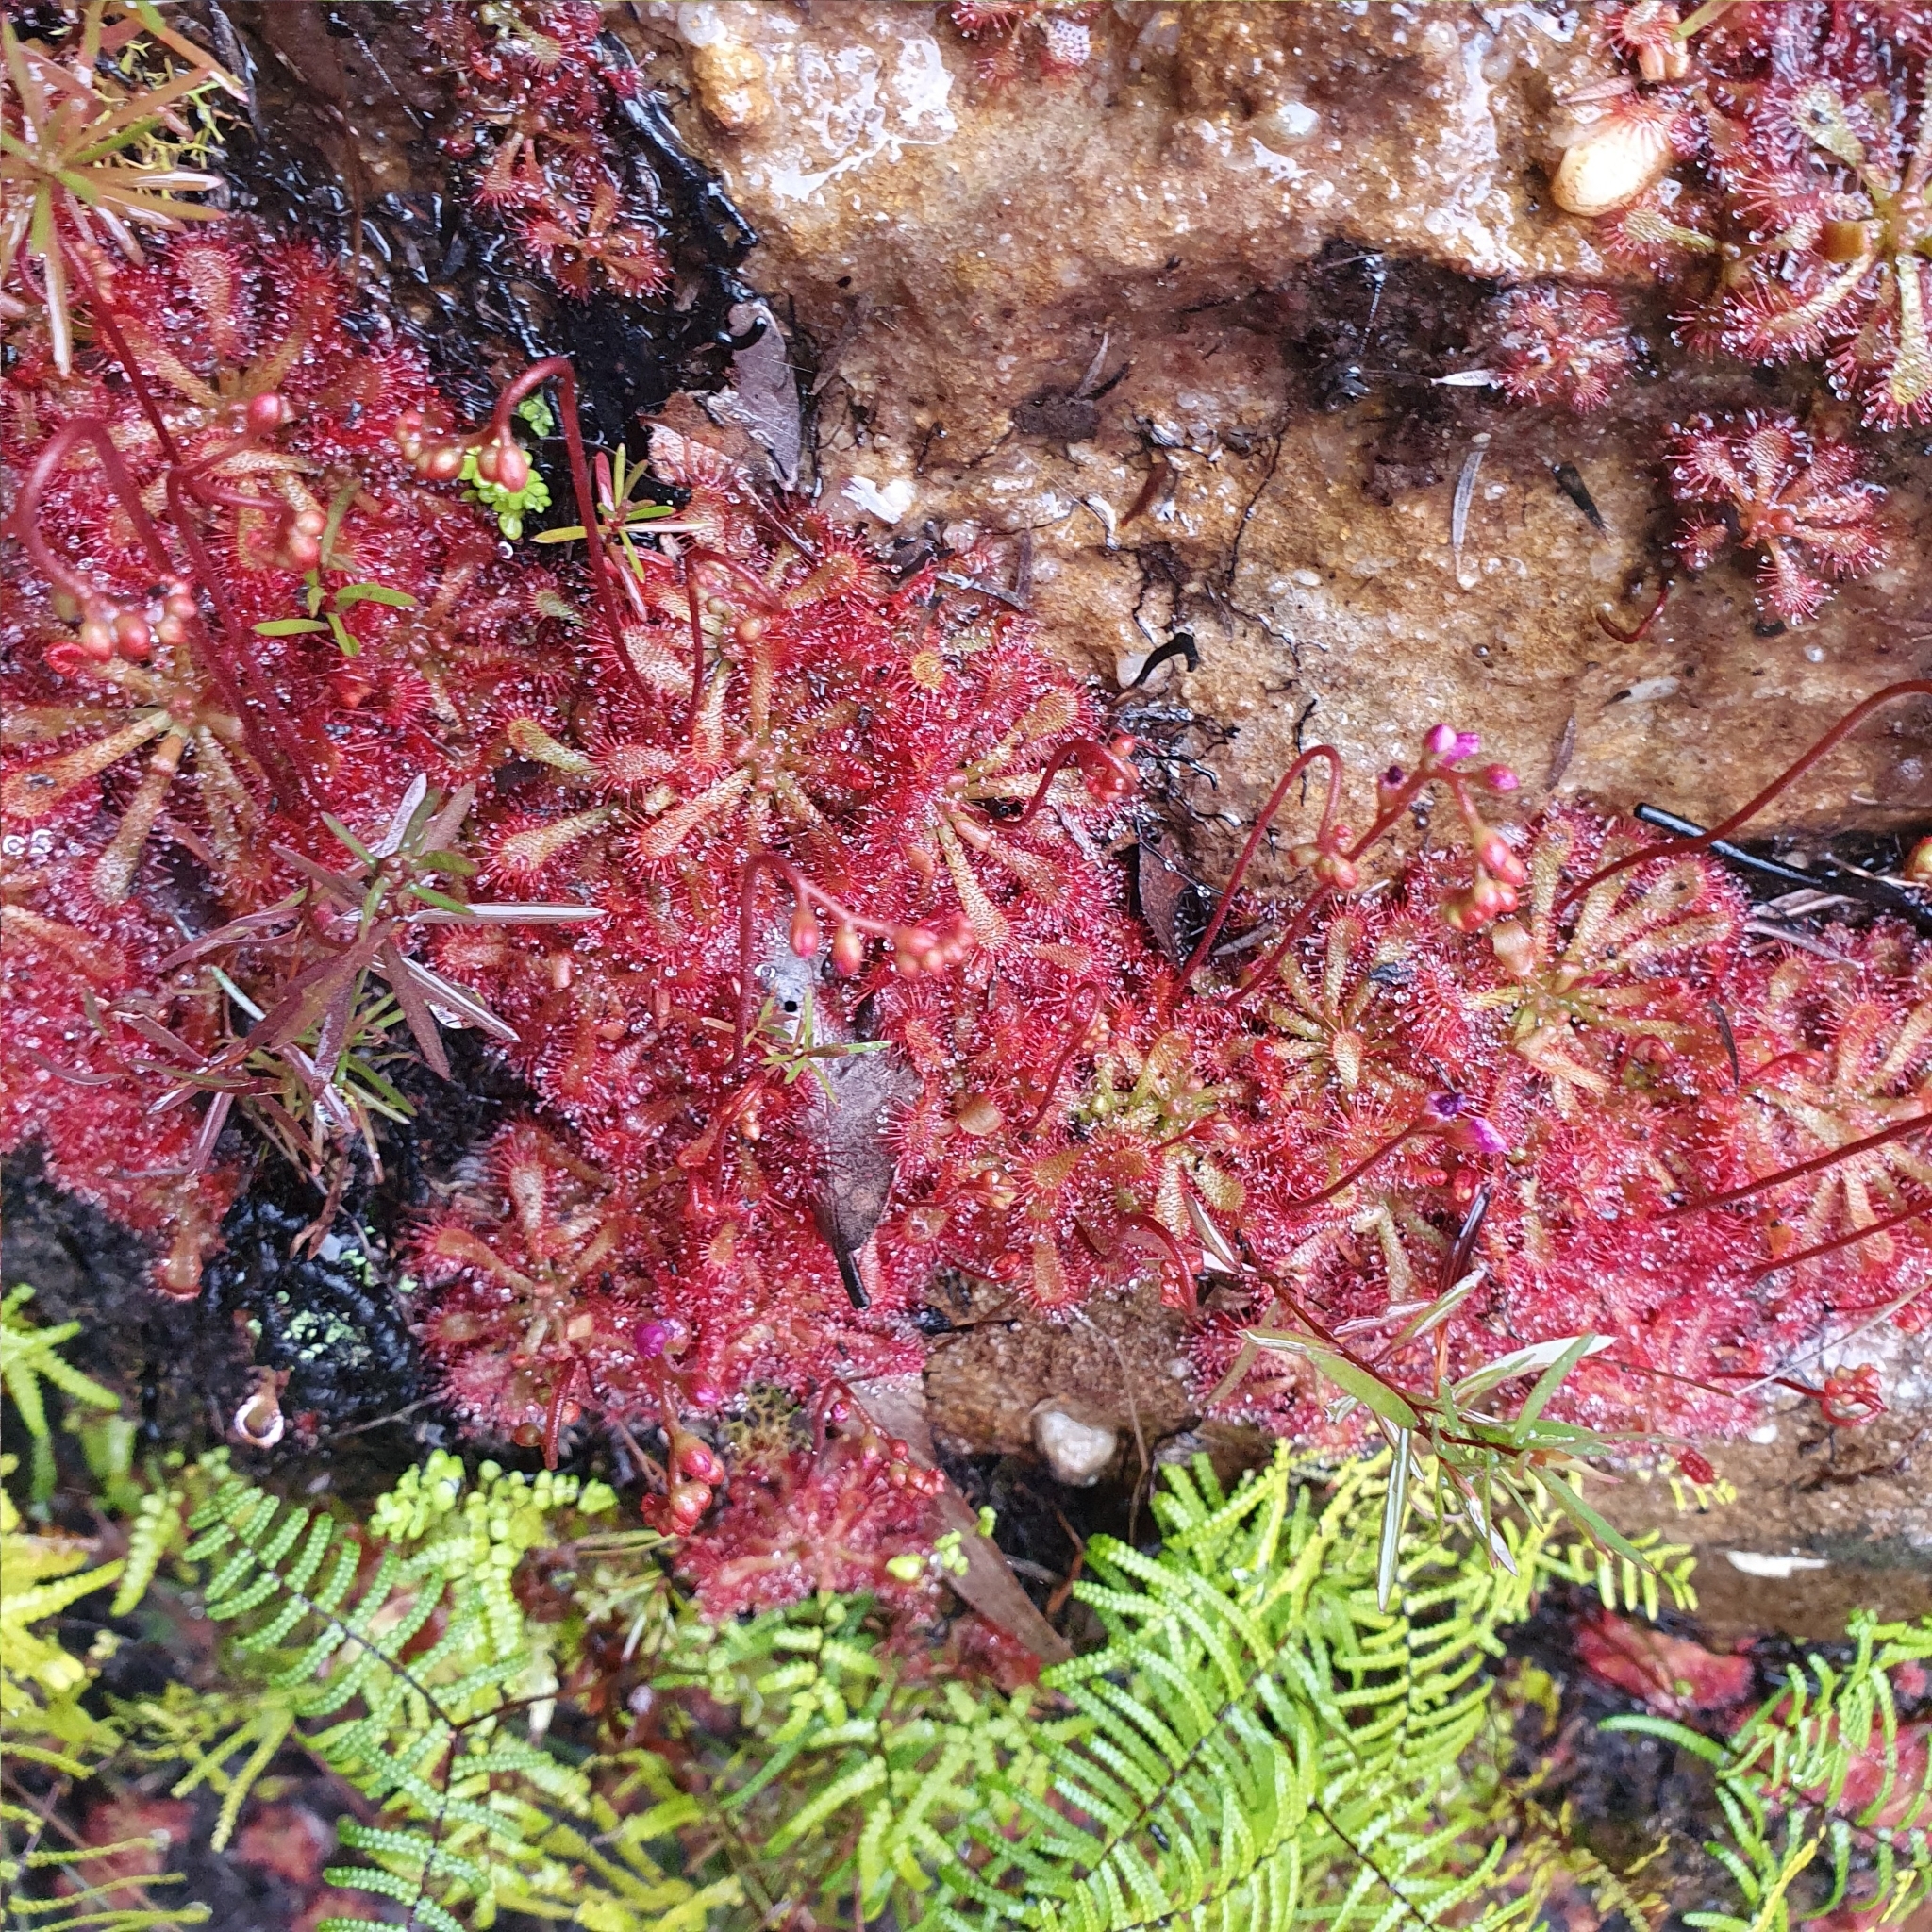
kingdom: Plantae
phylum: Tracheophyta
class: Magnoliopsida
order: Caryophyllales
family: Droseraceae
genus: Drosera
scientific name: Drosera spatulata
